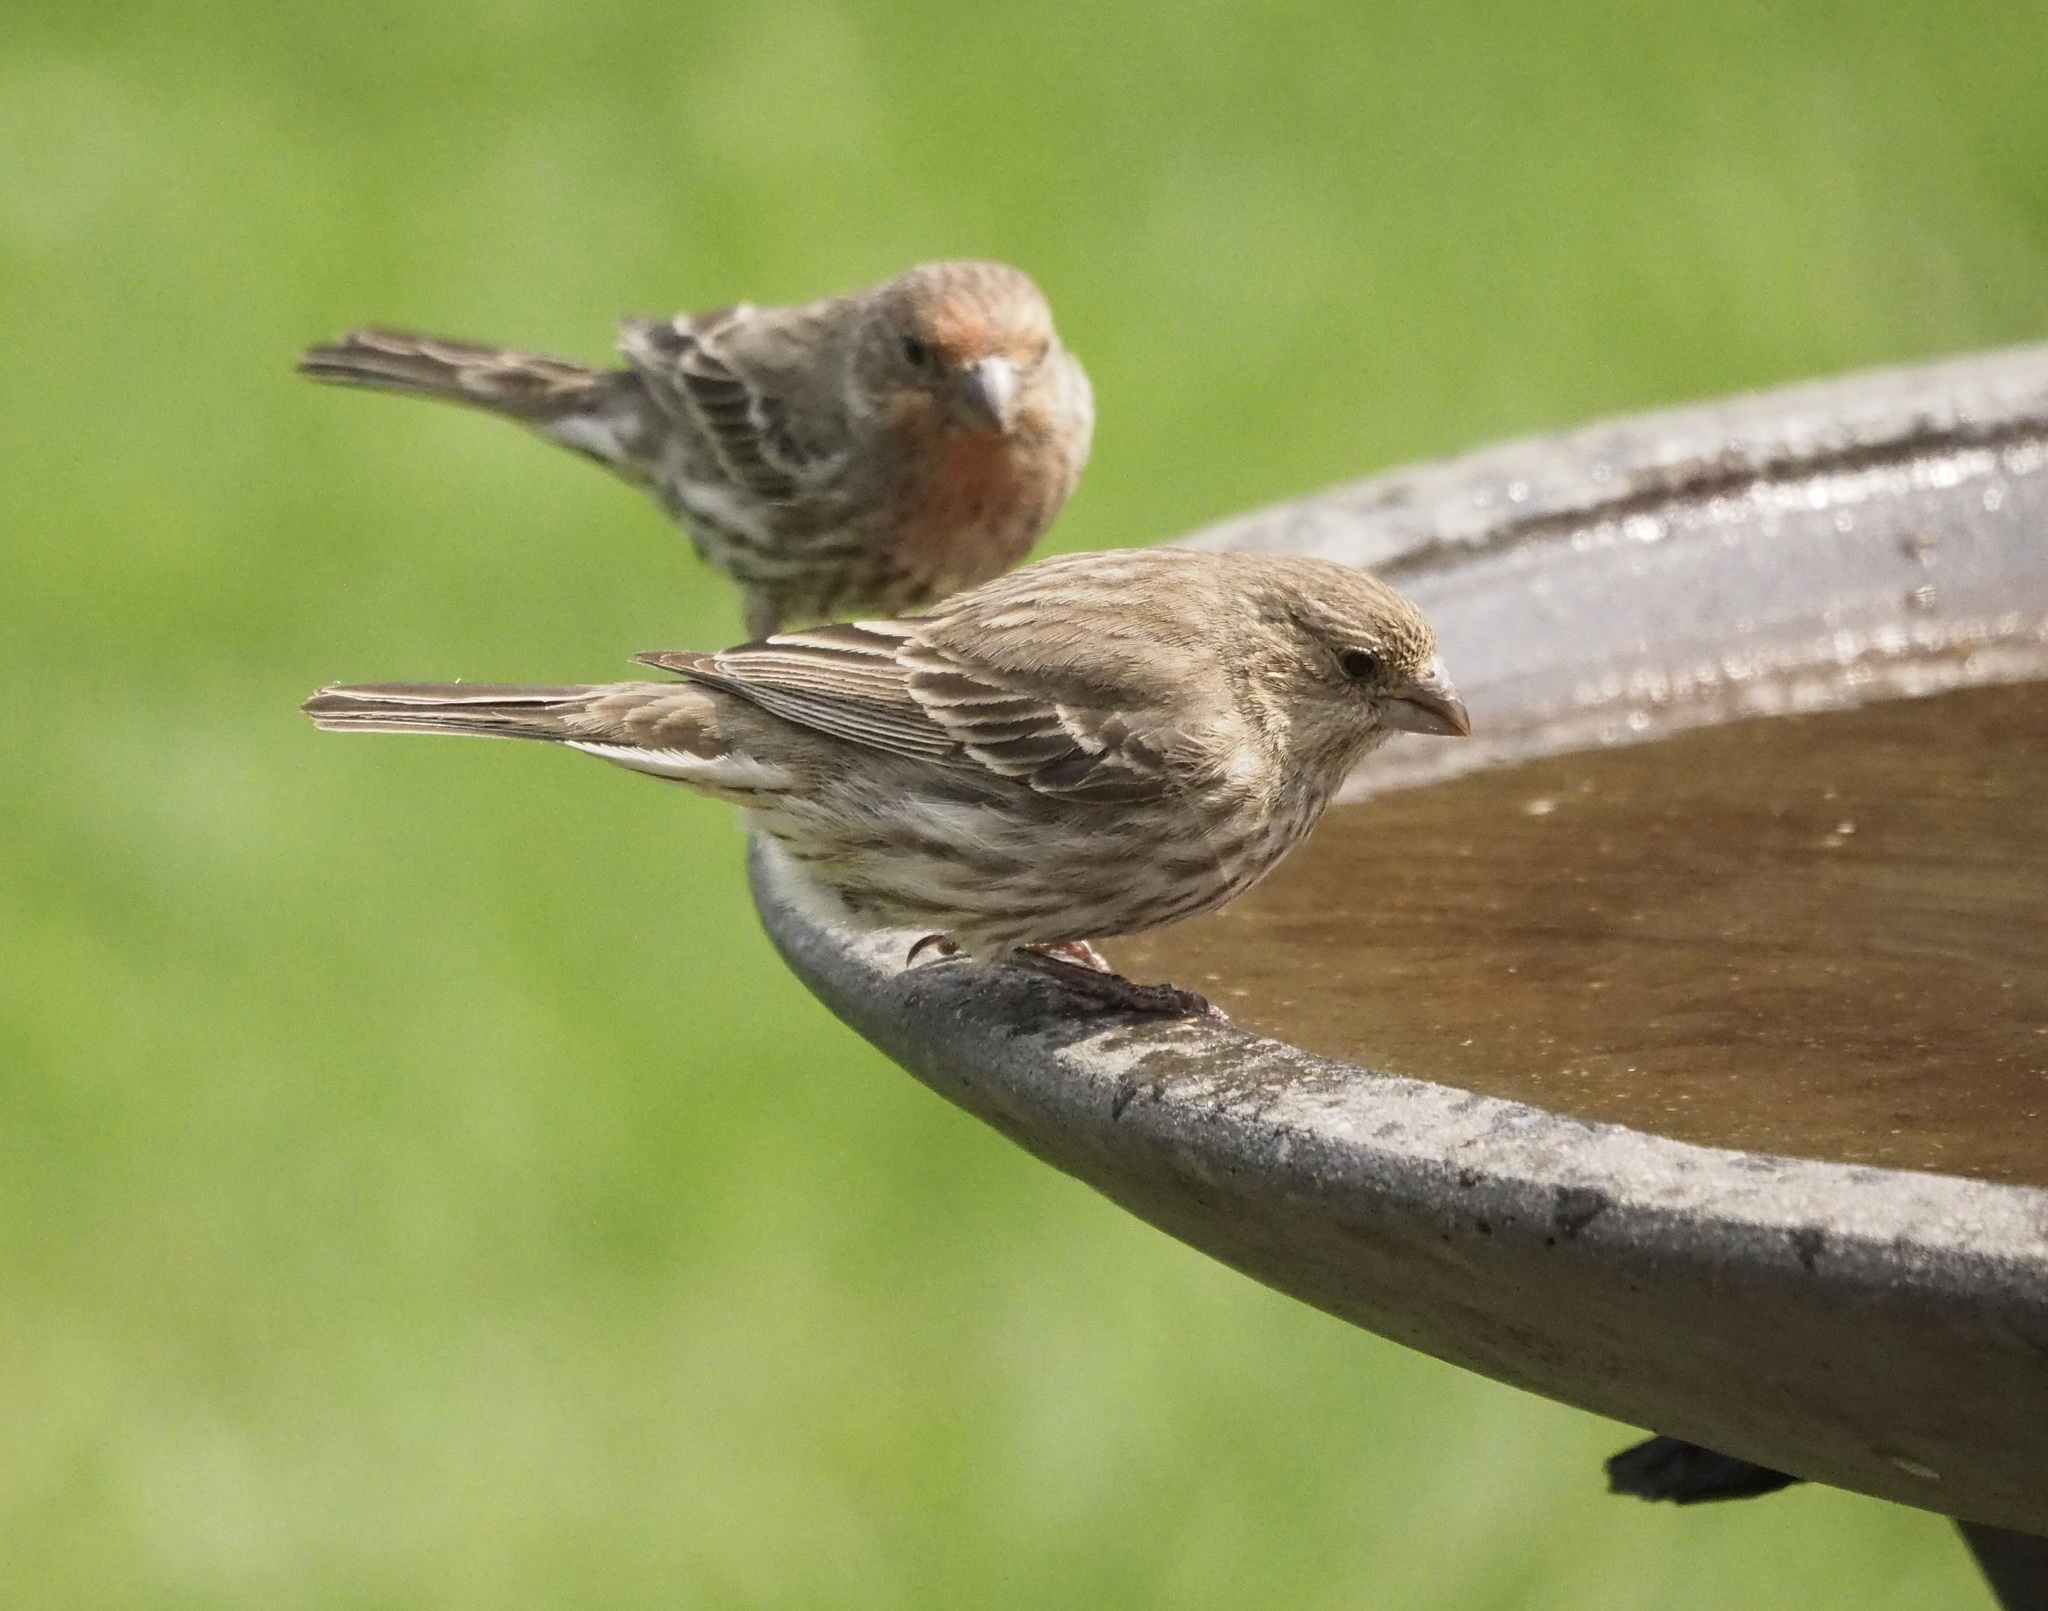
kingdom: Animalia
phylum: Chordata
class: Aves
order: Passeriformes
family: Fringillidae
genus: Haemorhous
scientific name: Haemorhous mexicanus
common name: House finch
